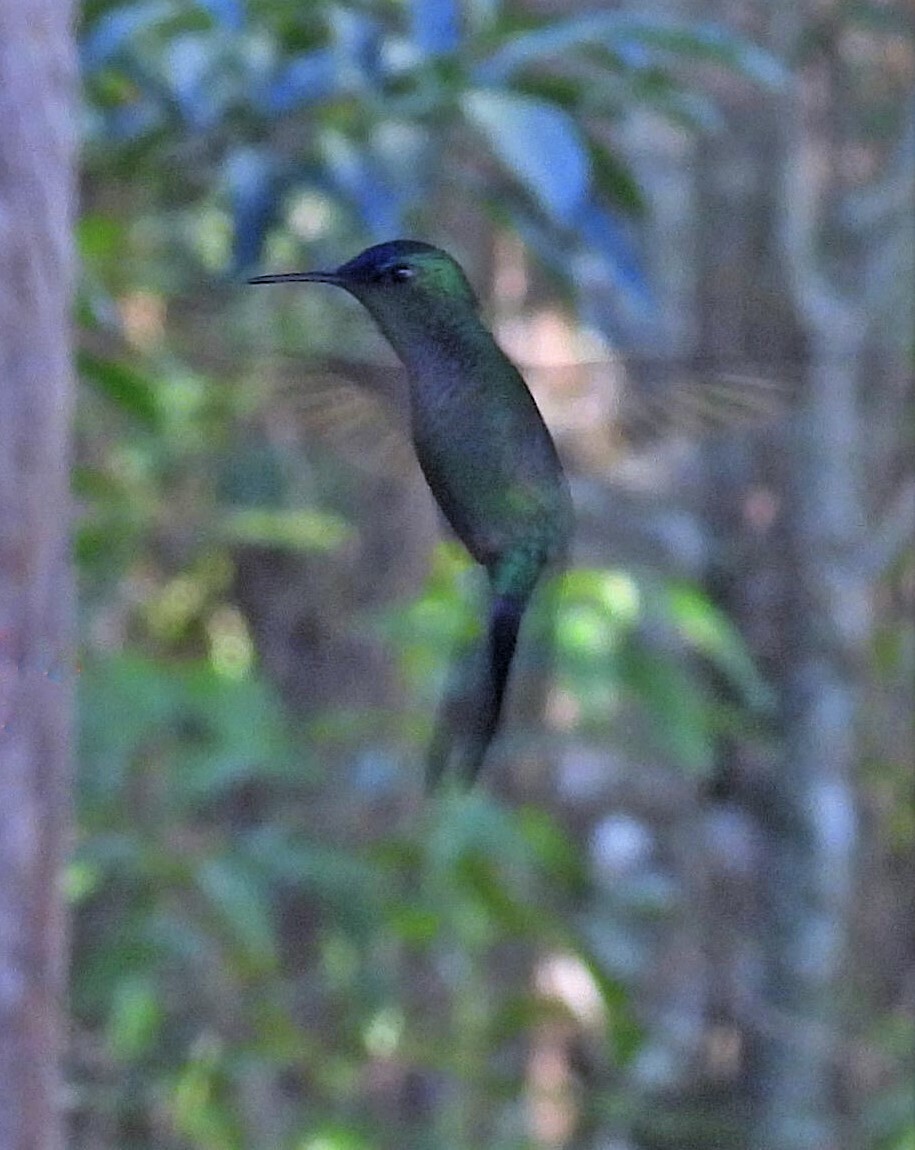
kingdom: Animalia
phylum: Chordata
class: Aves
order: Apodiformes
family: Trochilidae
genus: Thalurania
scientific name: Thalurania glaucopis
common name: Violet-capped woodnymph
